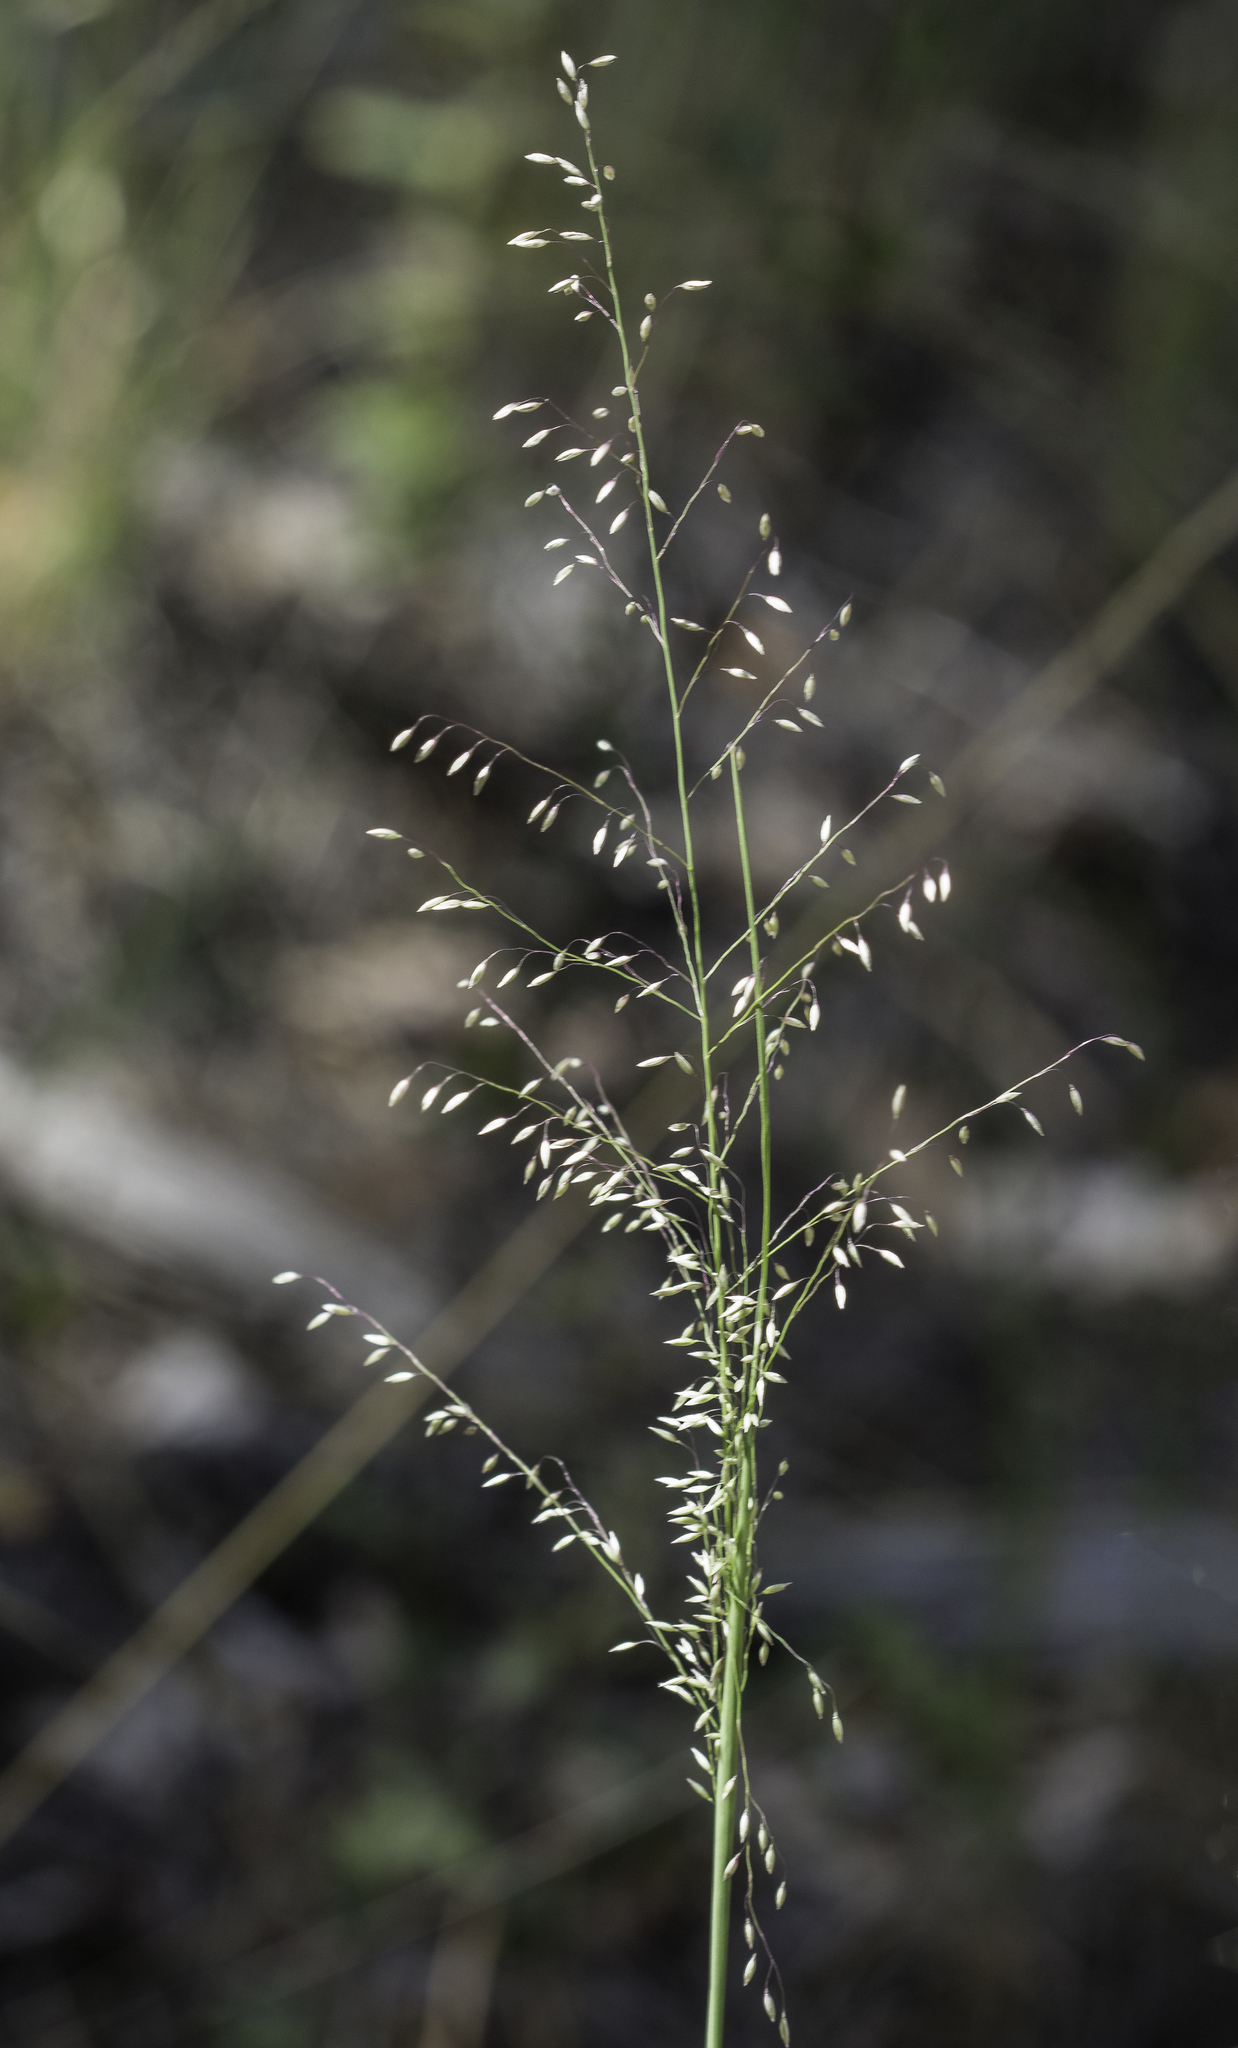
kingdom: Plantae
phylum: Tracheophyta
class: Liliopsida
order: Poales
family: Poaceae
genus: Muhlenbergia
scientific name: Muhlenbergia tricholepis
